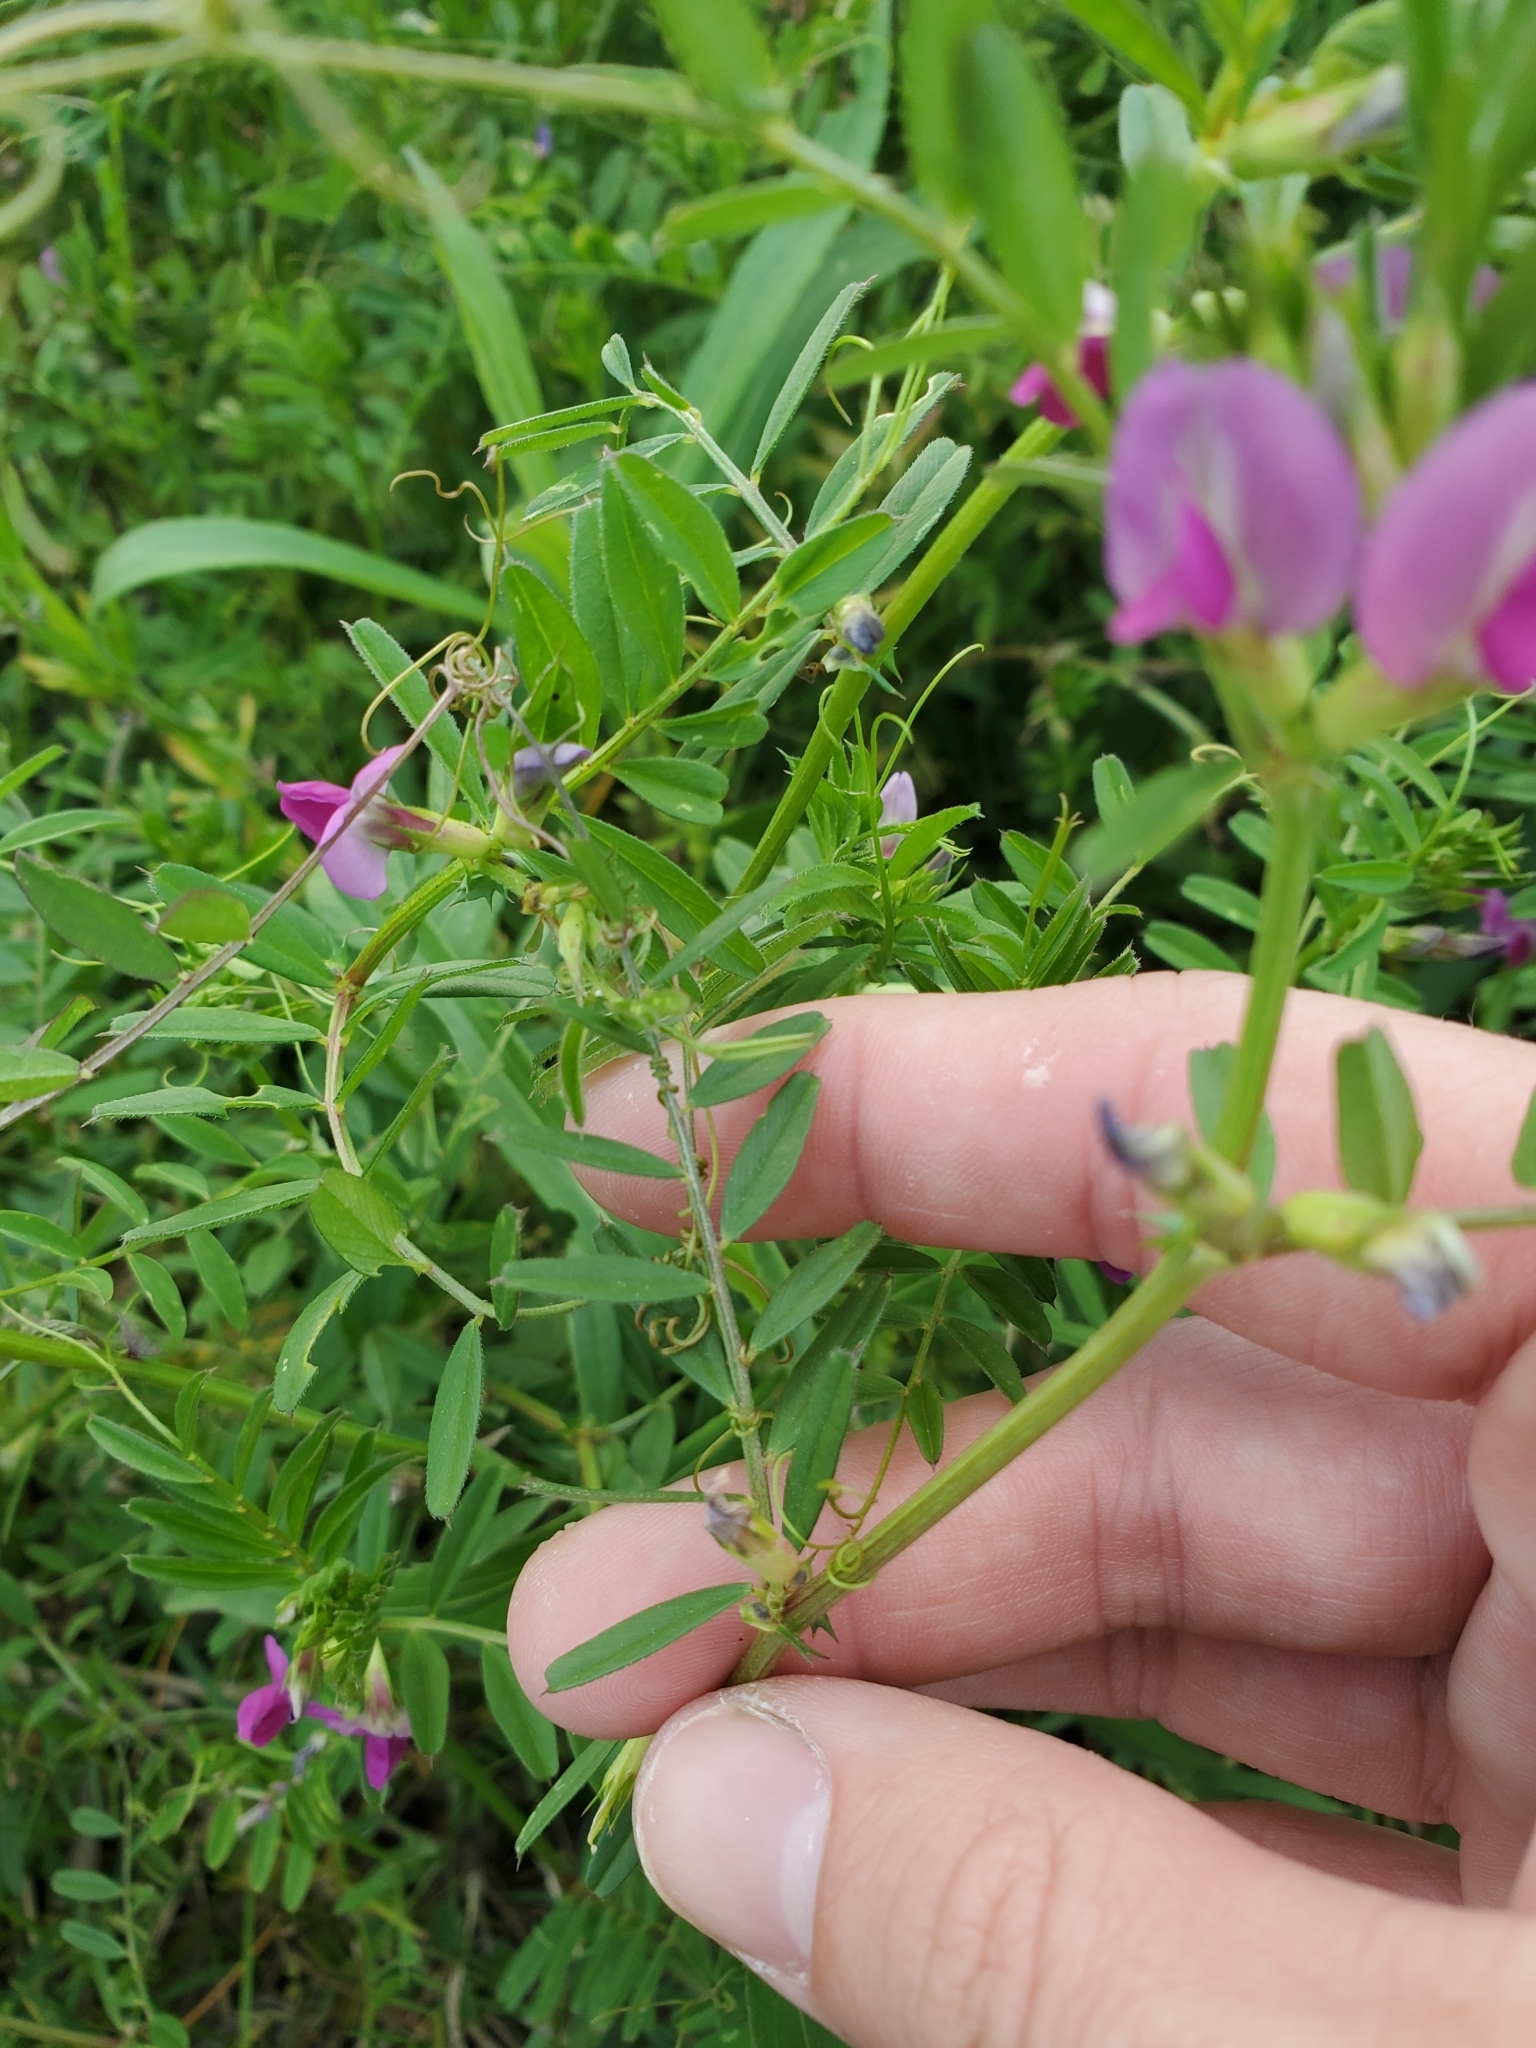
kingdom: Plantae
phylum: Tracheophyta
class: Magnoliopsida
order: Fabales
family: Fabaceae
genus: Vicia
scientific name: Vicia sativa
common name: Garden vetch
